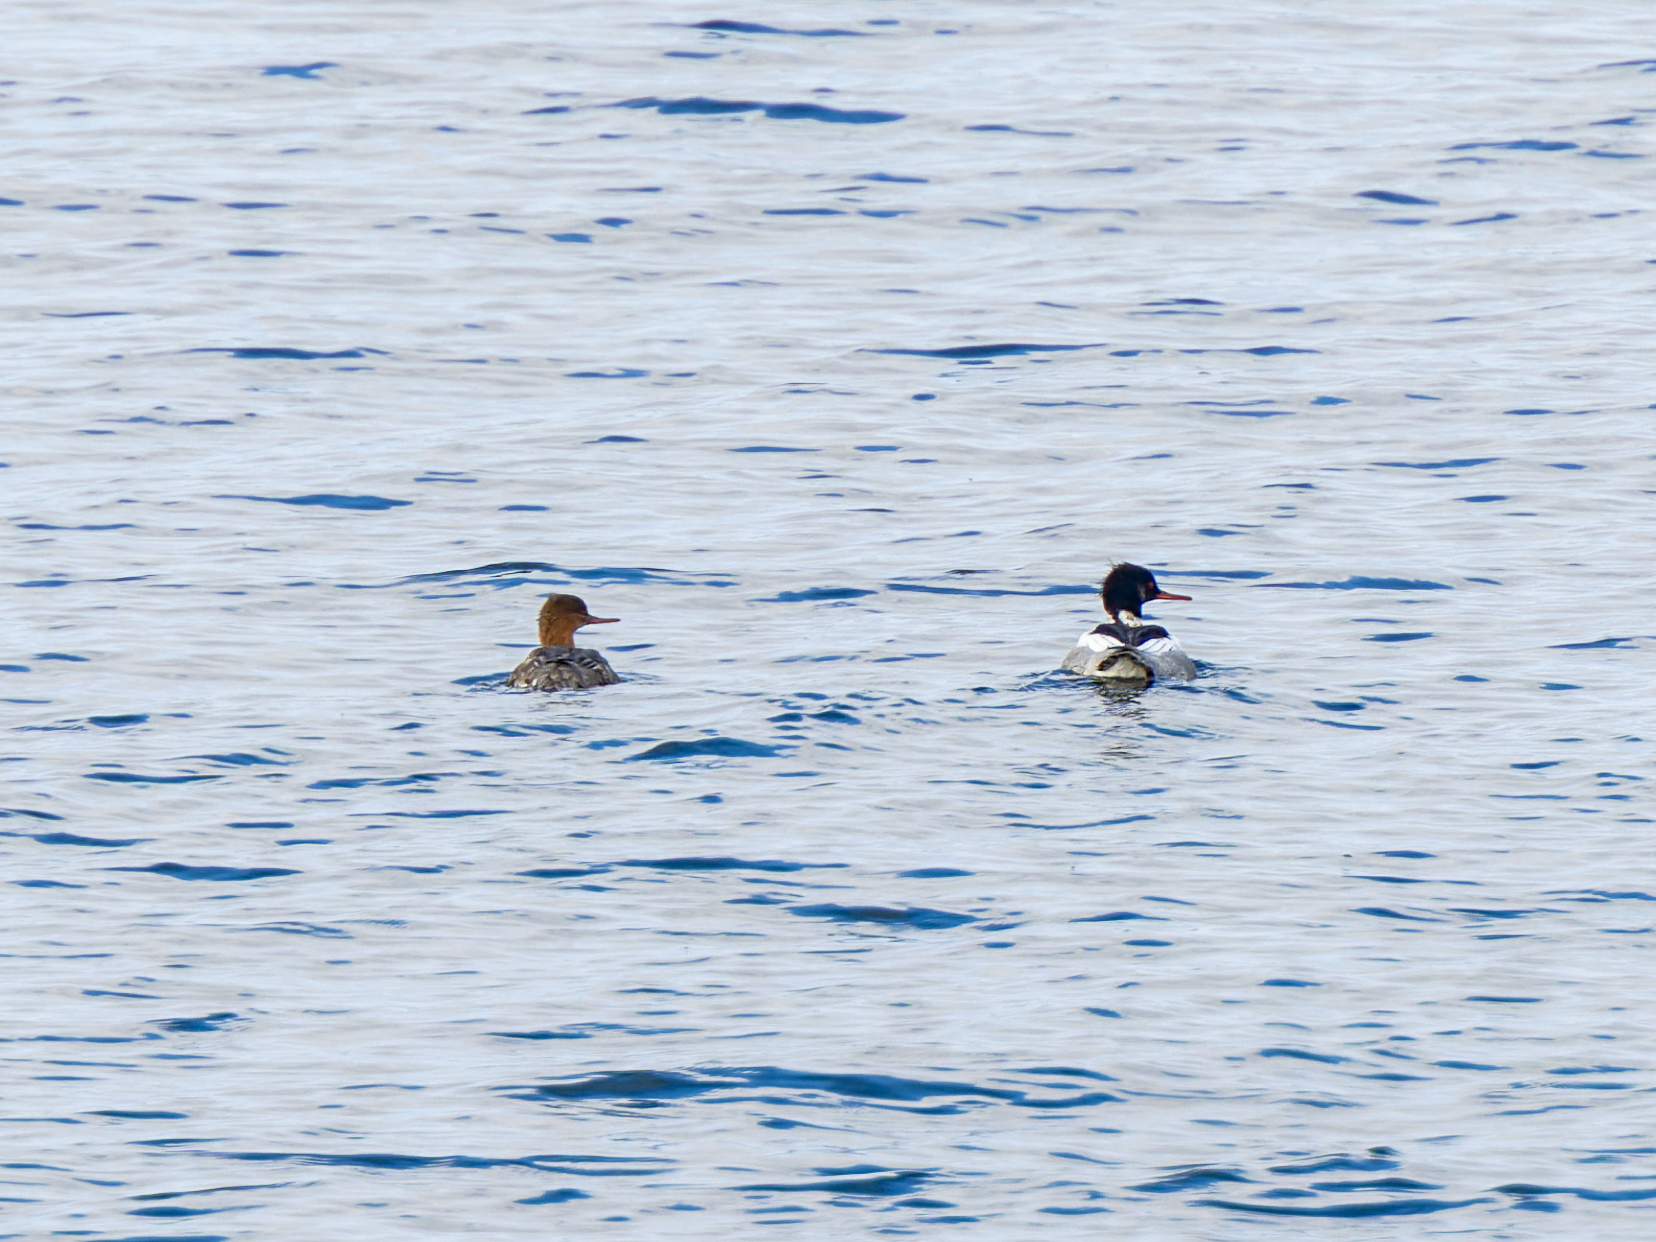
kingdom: Animalia
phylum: Chordata
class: Aves
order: Anseriformes
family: Anatidae
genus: Mergus
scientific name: Mergus serrator
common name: Red-breasted merganser
